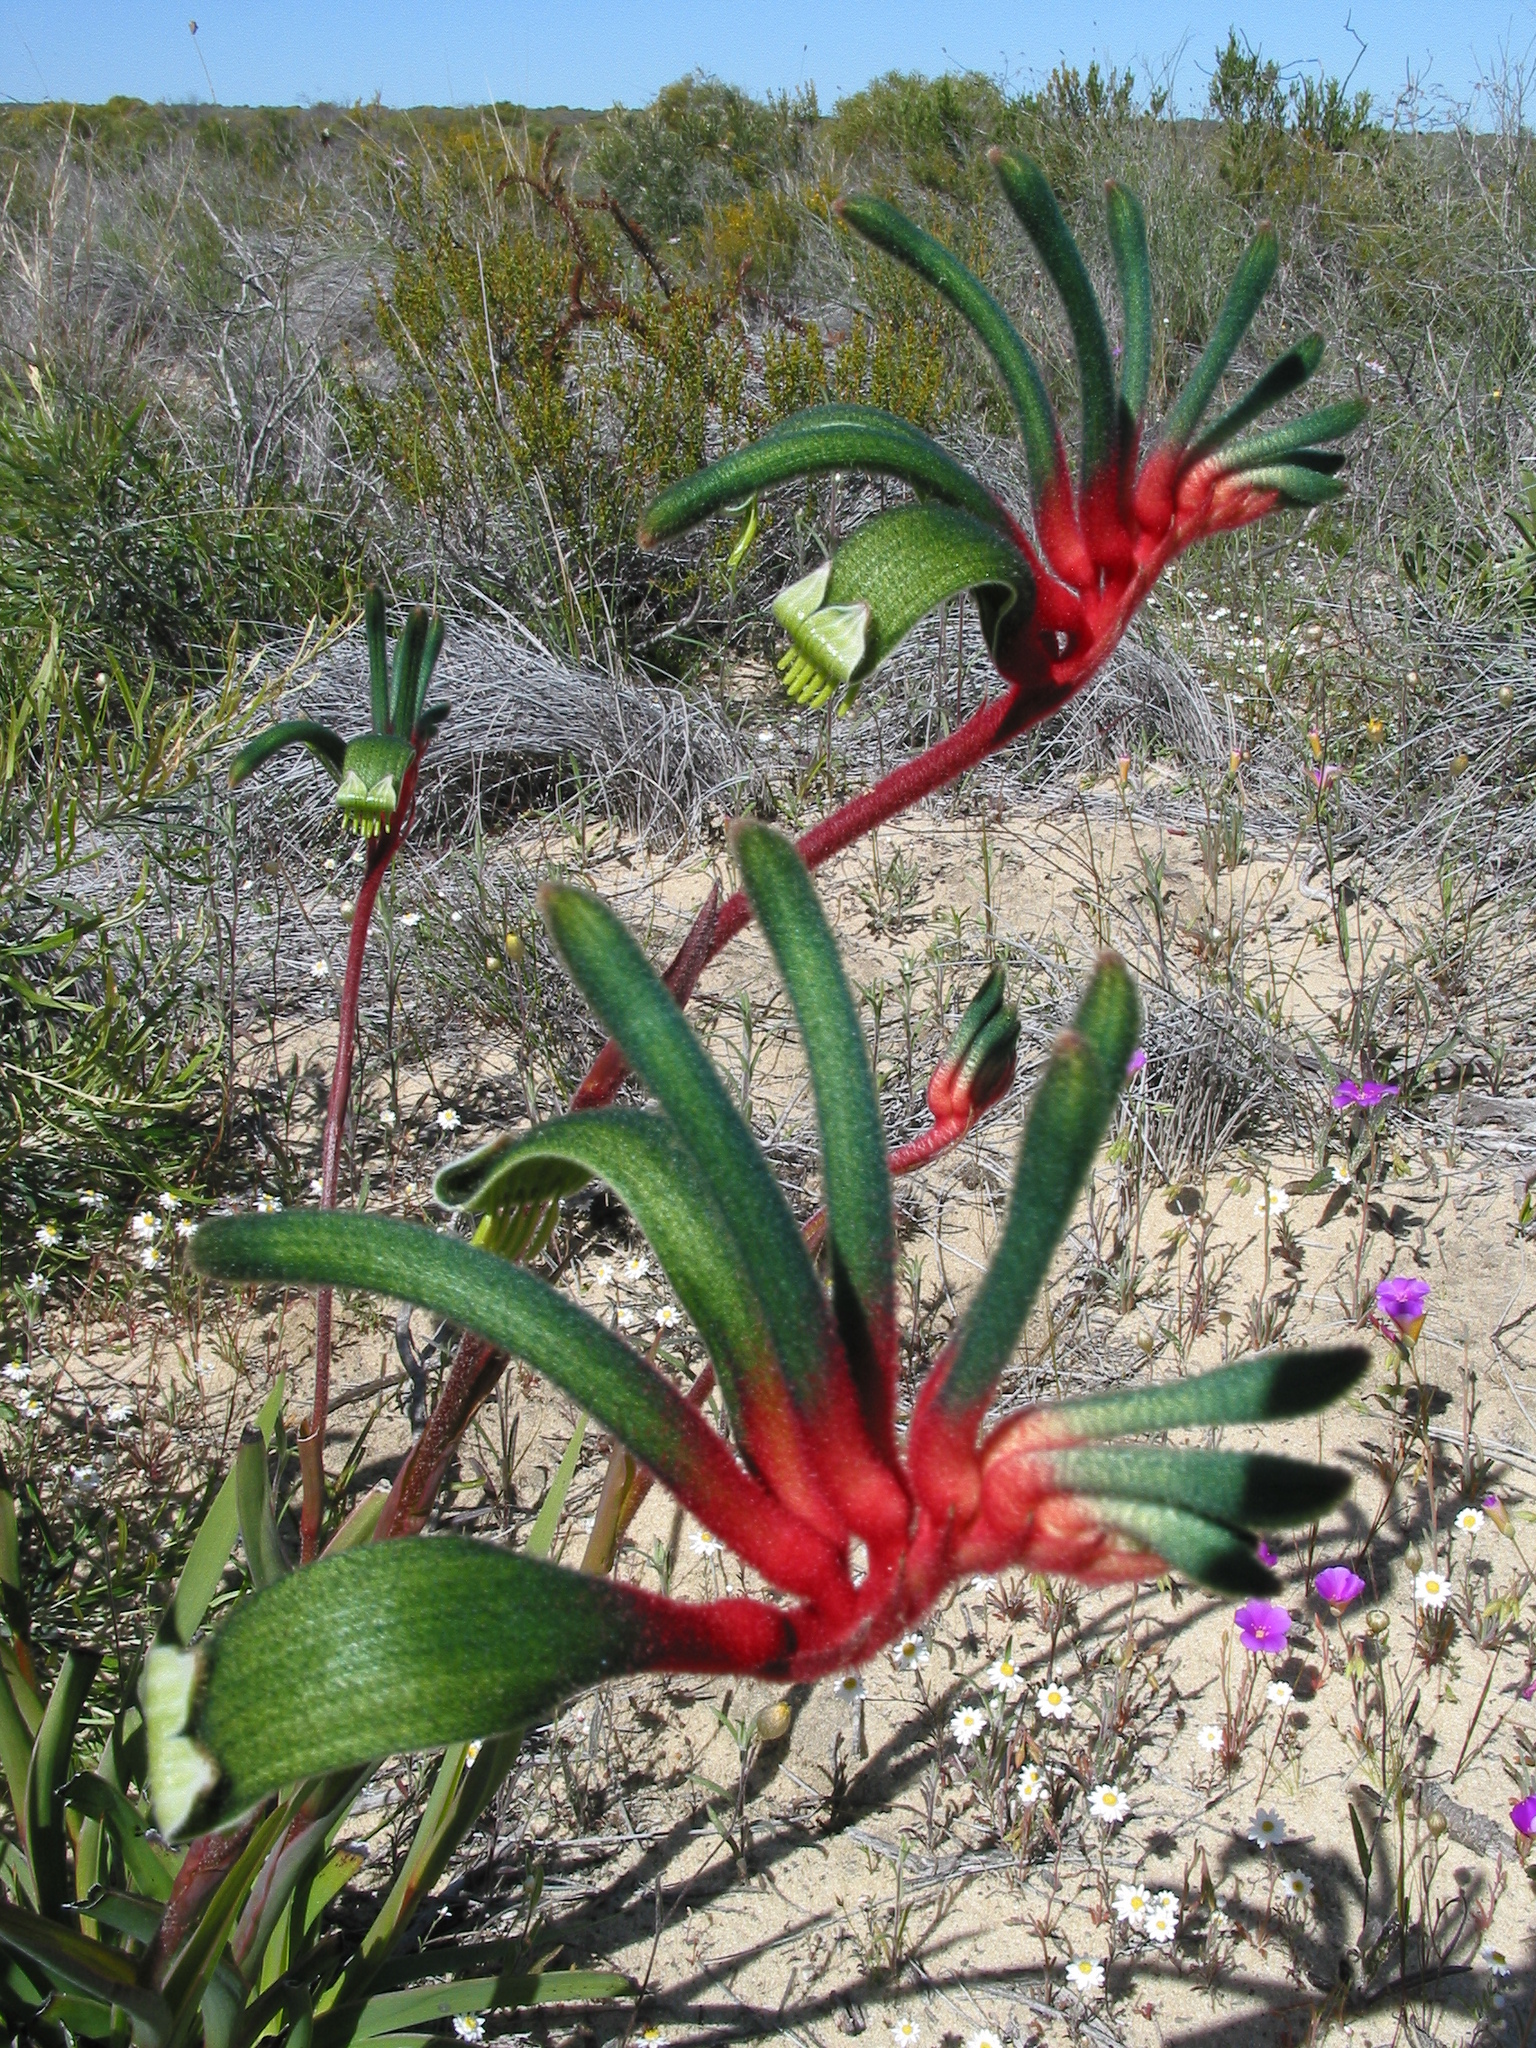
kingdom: Plantae
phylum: Tracheophyta
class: Liliopsida
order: Commelinales
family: Haemodoraceae
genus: Anigozanthos
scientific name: Anigozanthos manglesii
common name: Mangles's kangaroo-paw
